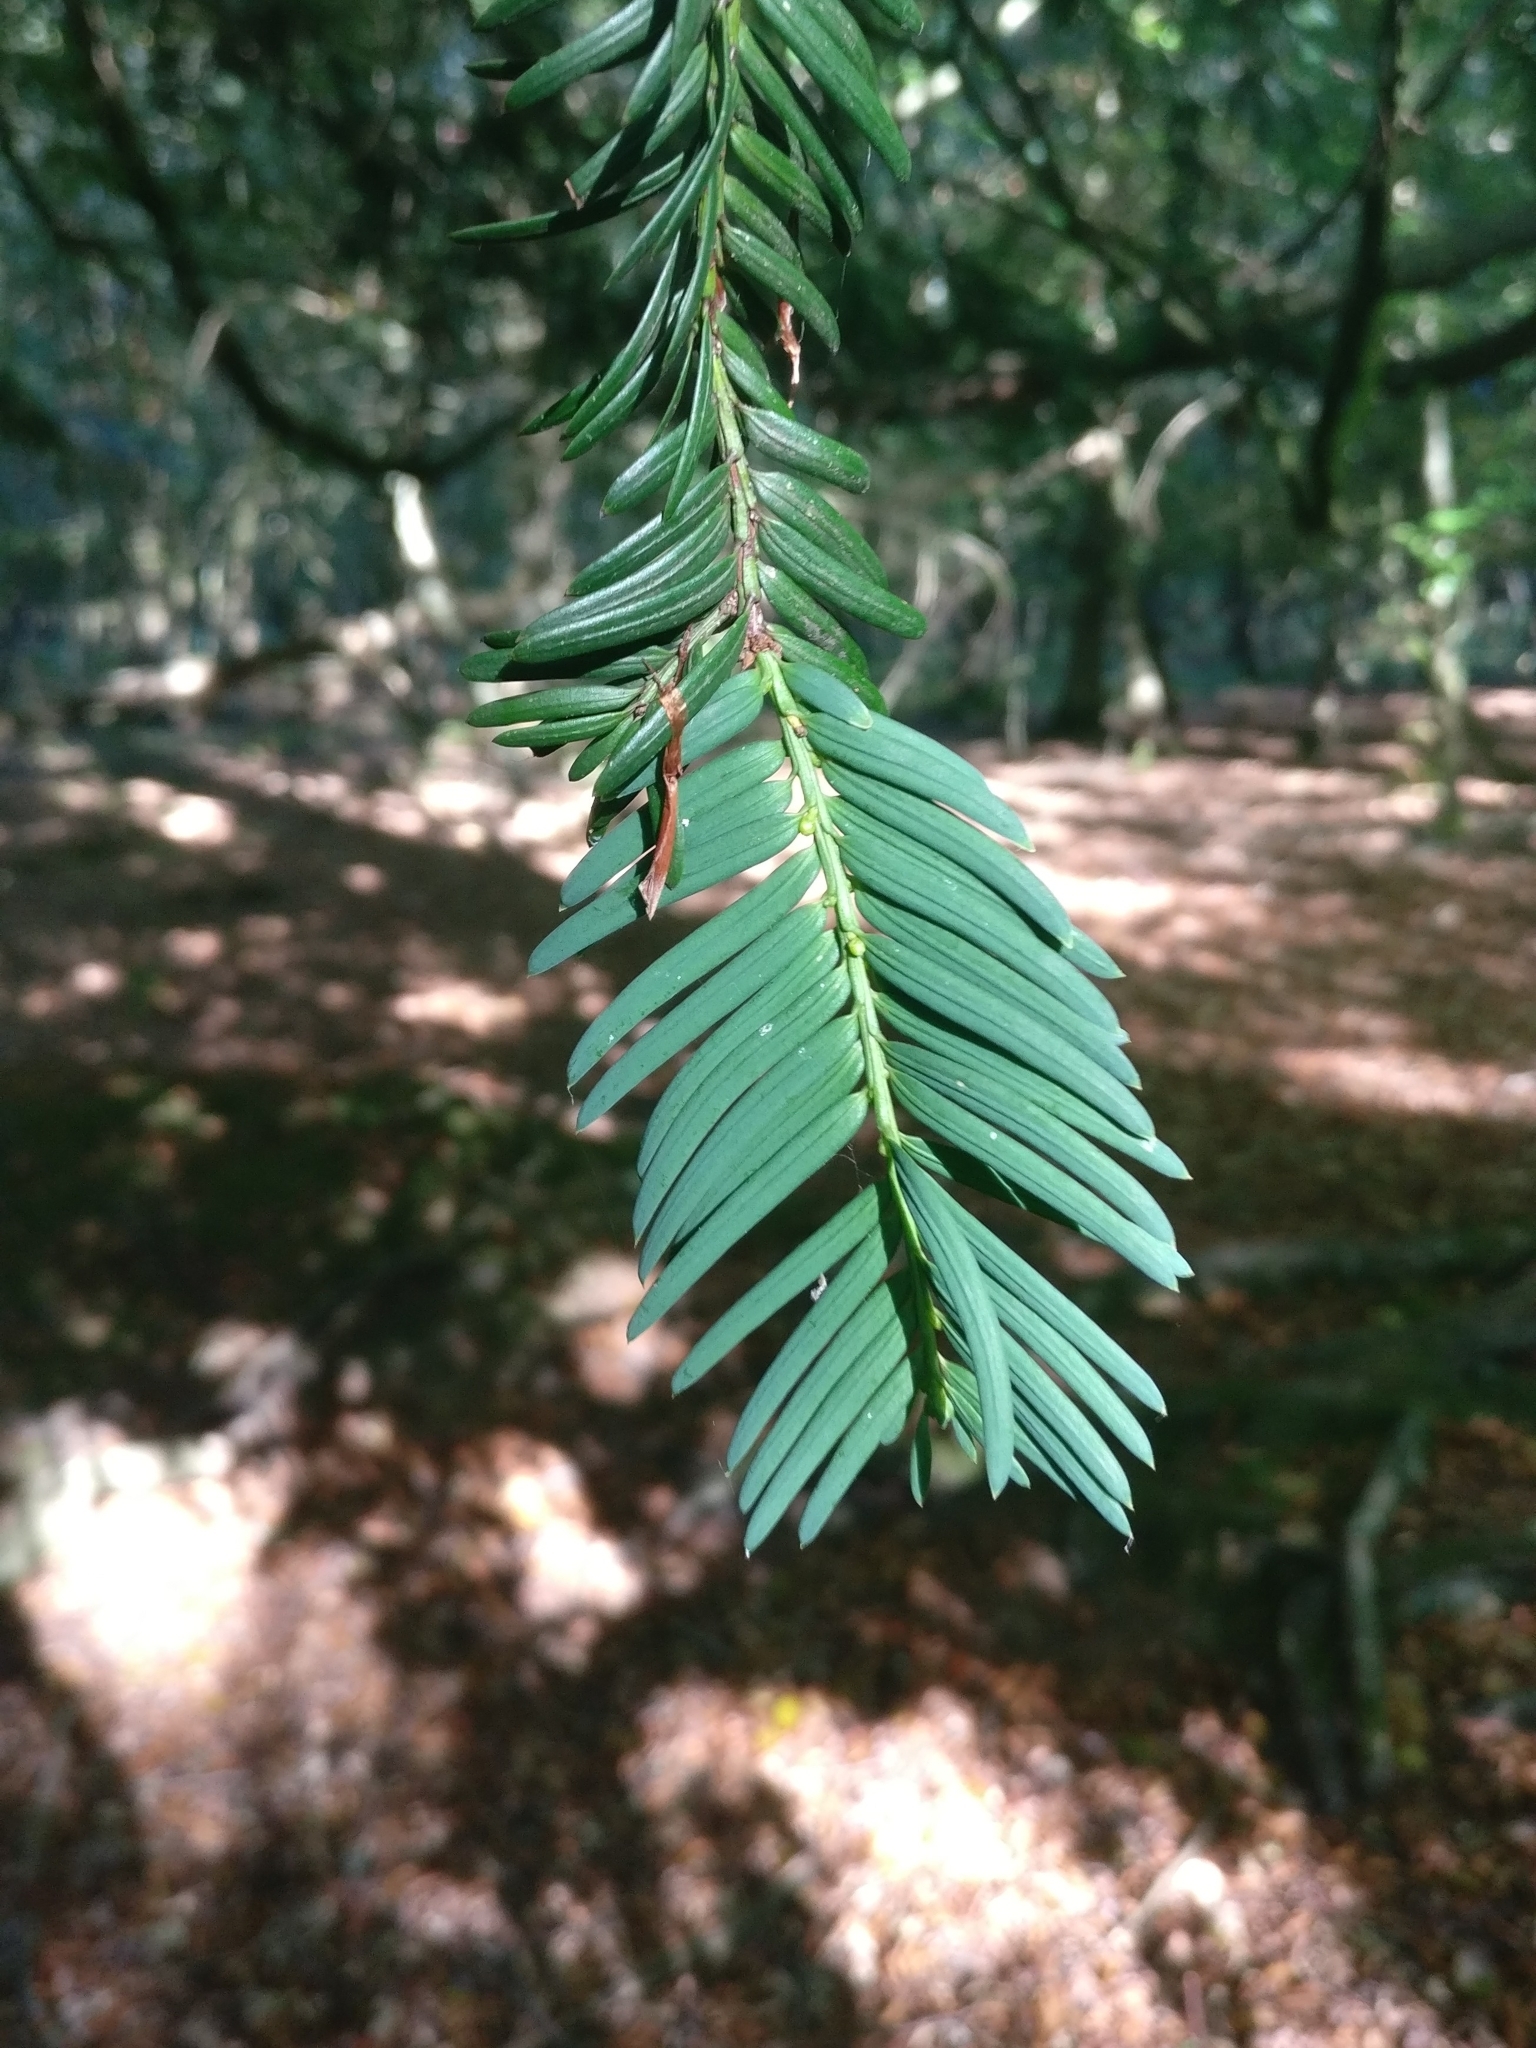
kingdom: Plantae
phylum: Tracheophyta
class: Pinopsida
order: Pinales
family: Taxaceae
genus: Taxus
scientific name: Taxus baccata
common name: Yew
